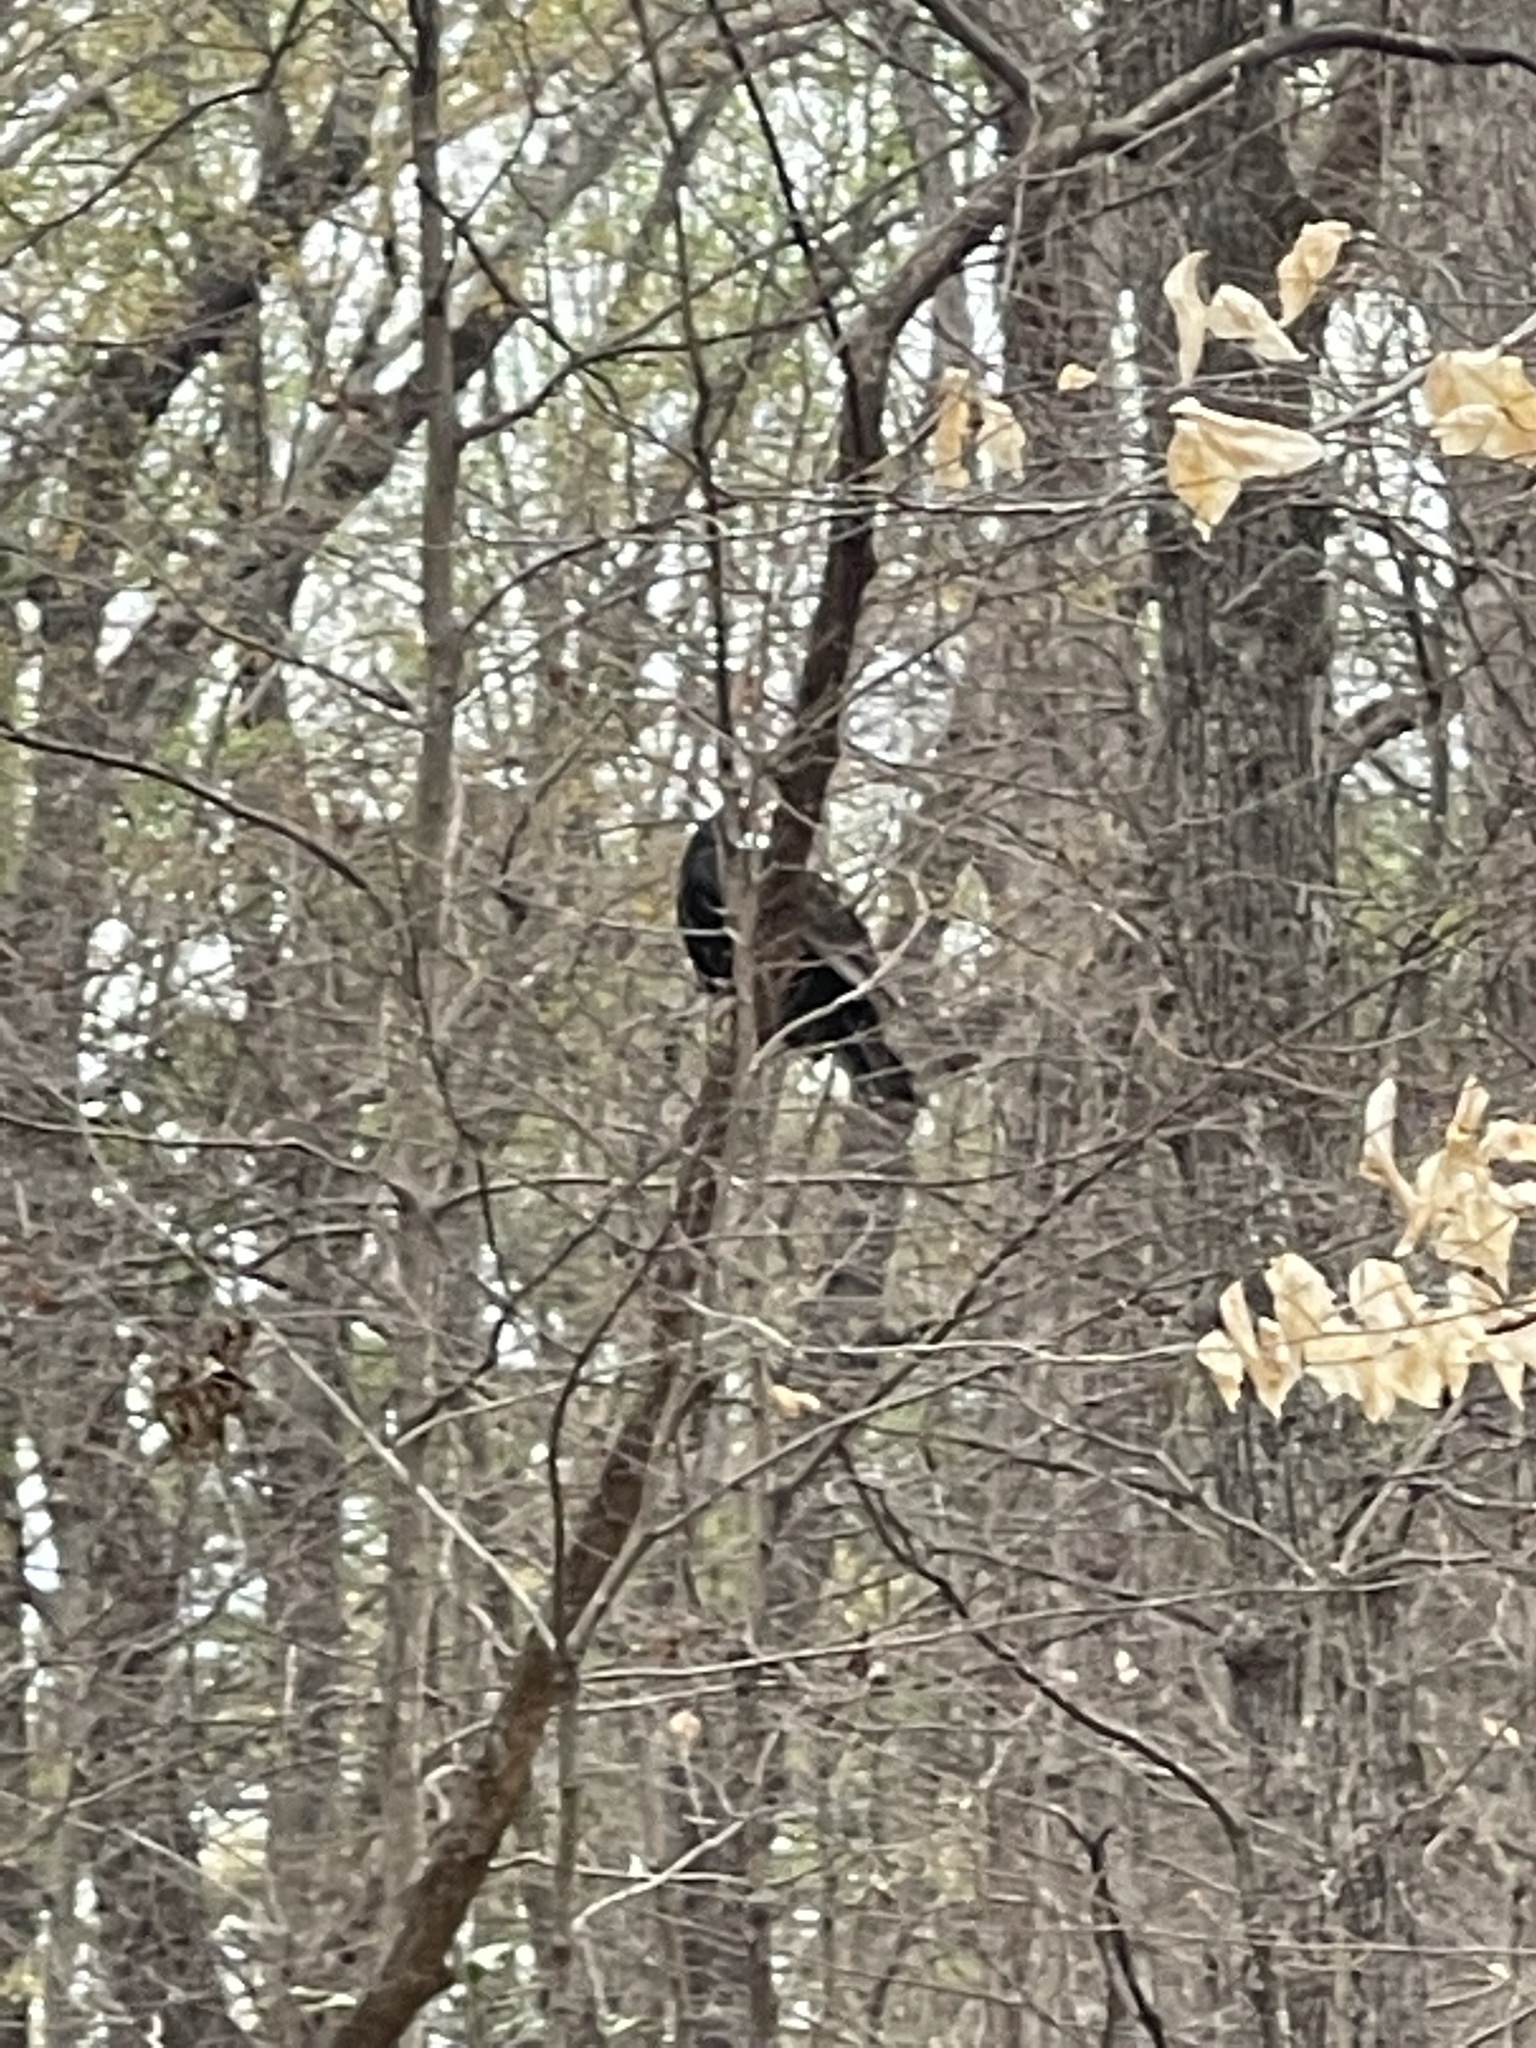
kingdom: Animalia
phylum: Chordata
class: Aves
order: Accipitriformes
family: Cathartidae
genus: Cathartes
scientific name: Cathartes aura
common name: Turkey vulture
